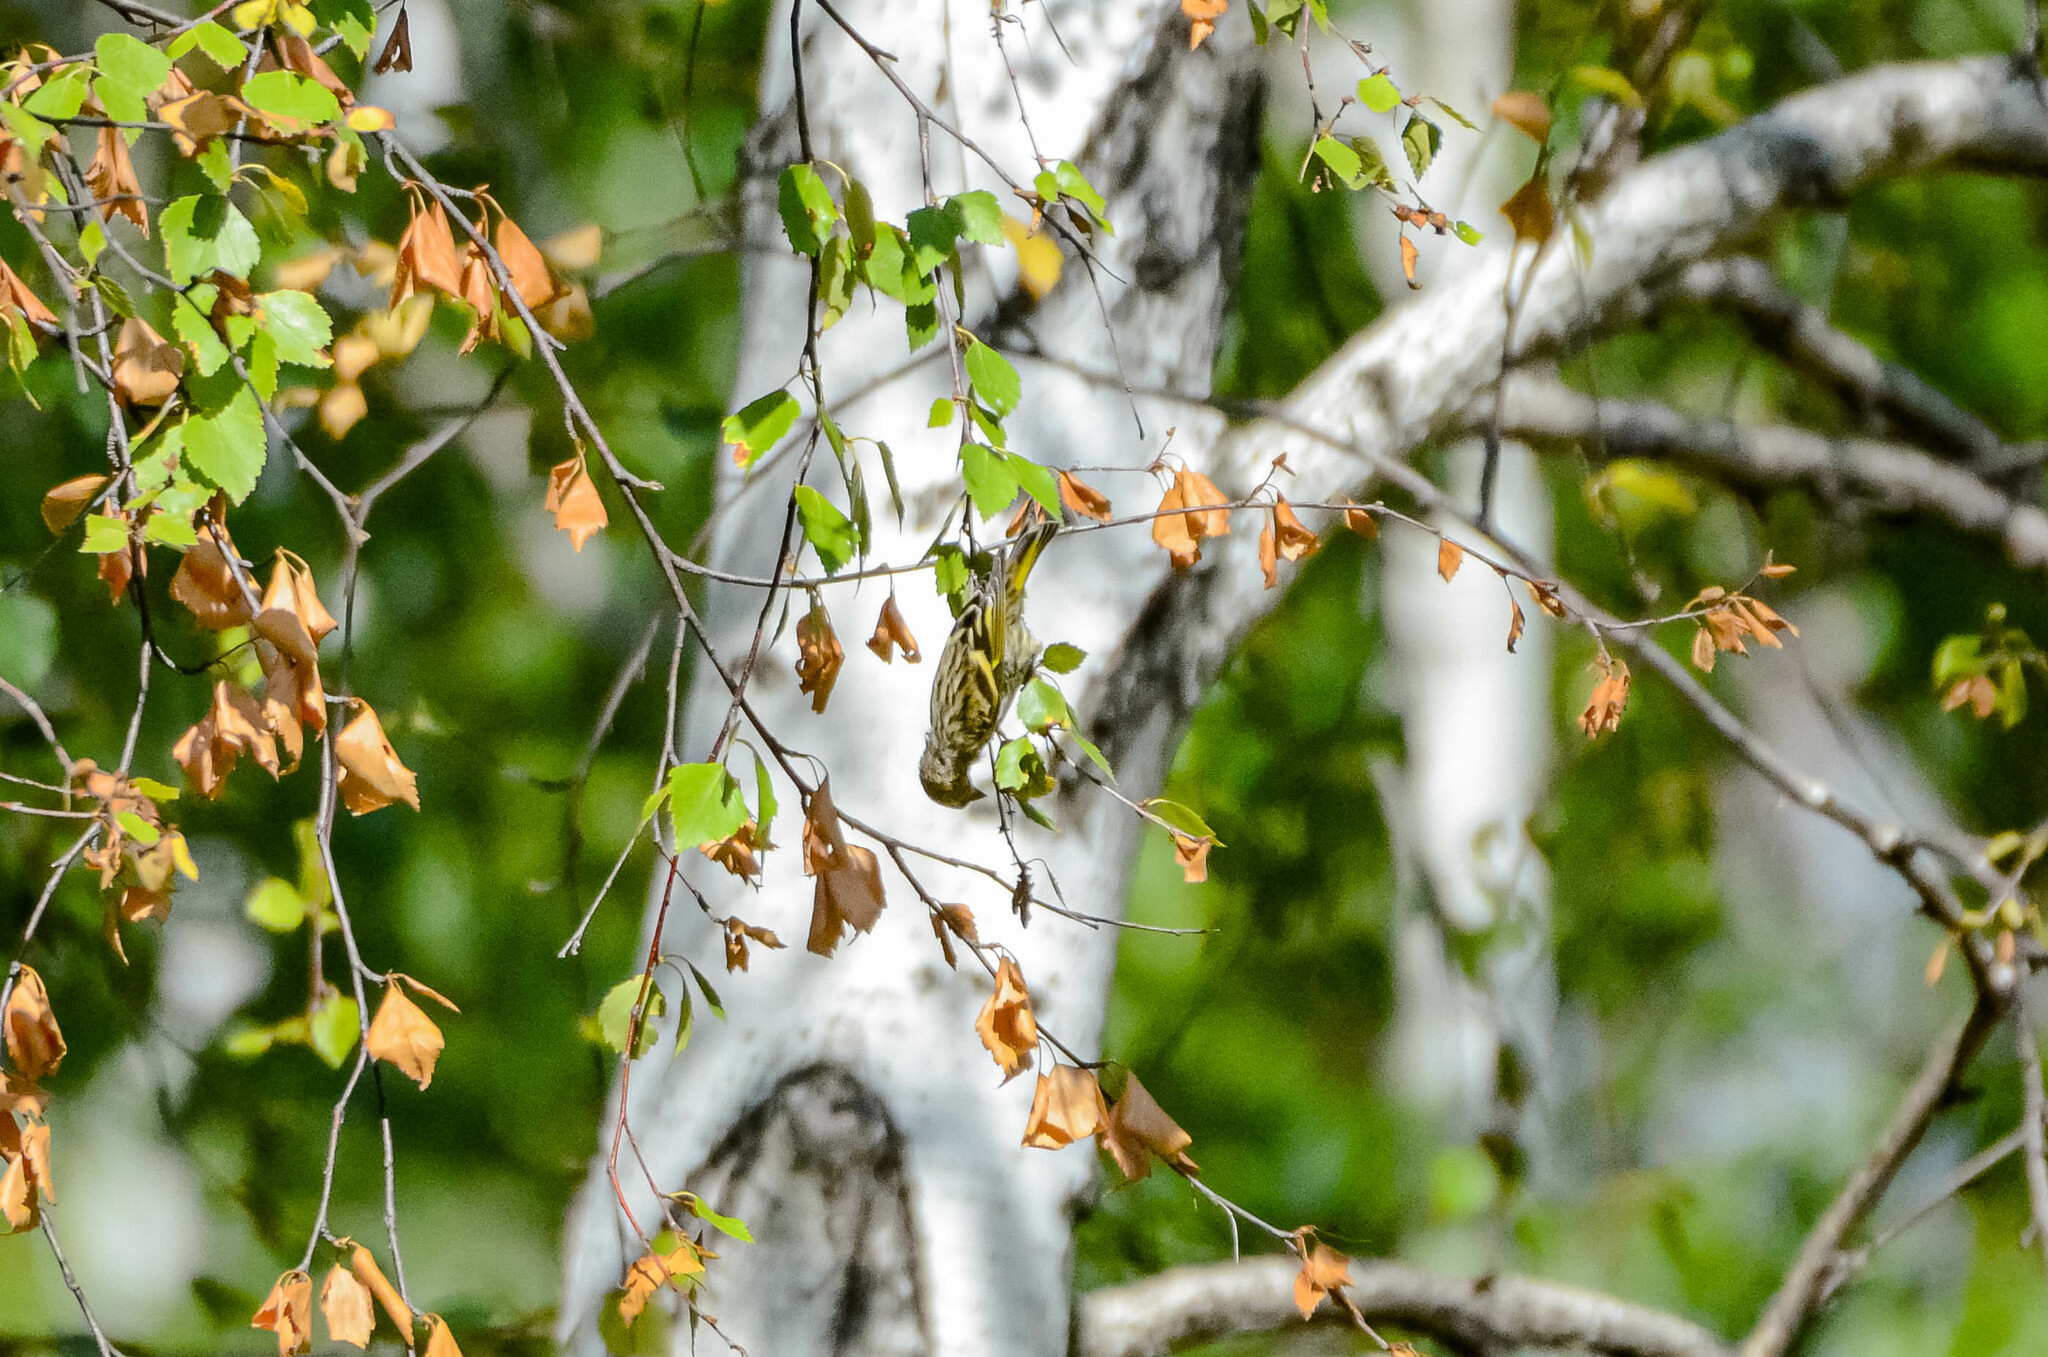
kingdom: Animalia
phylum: Chordata
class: Aves
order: Passeriformes
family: Fringillidae
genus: Spinus
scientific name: Spinus spinus
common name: Eurasian siskin
